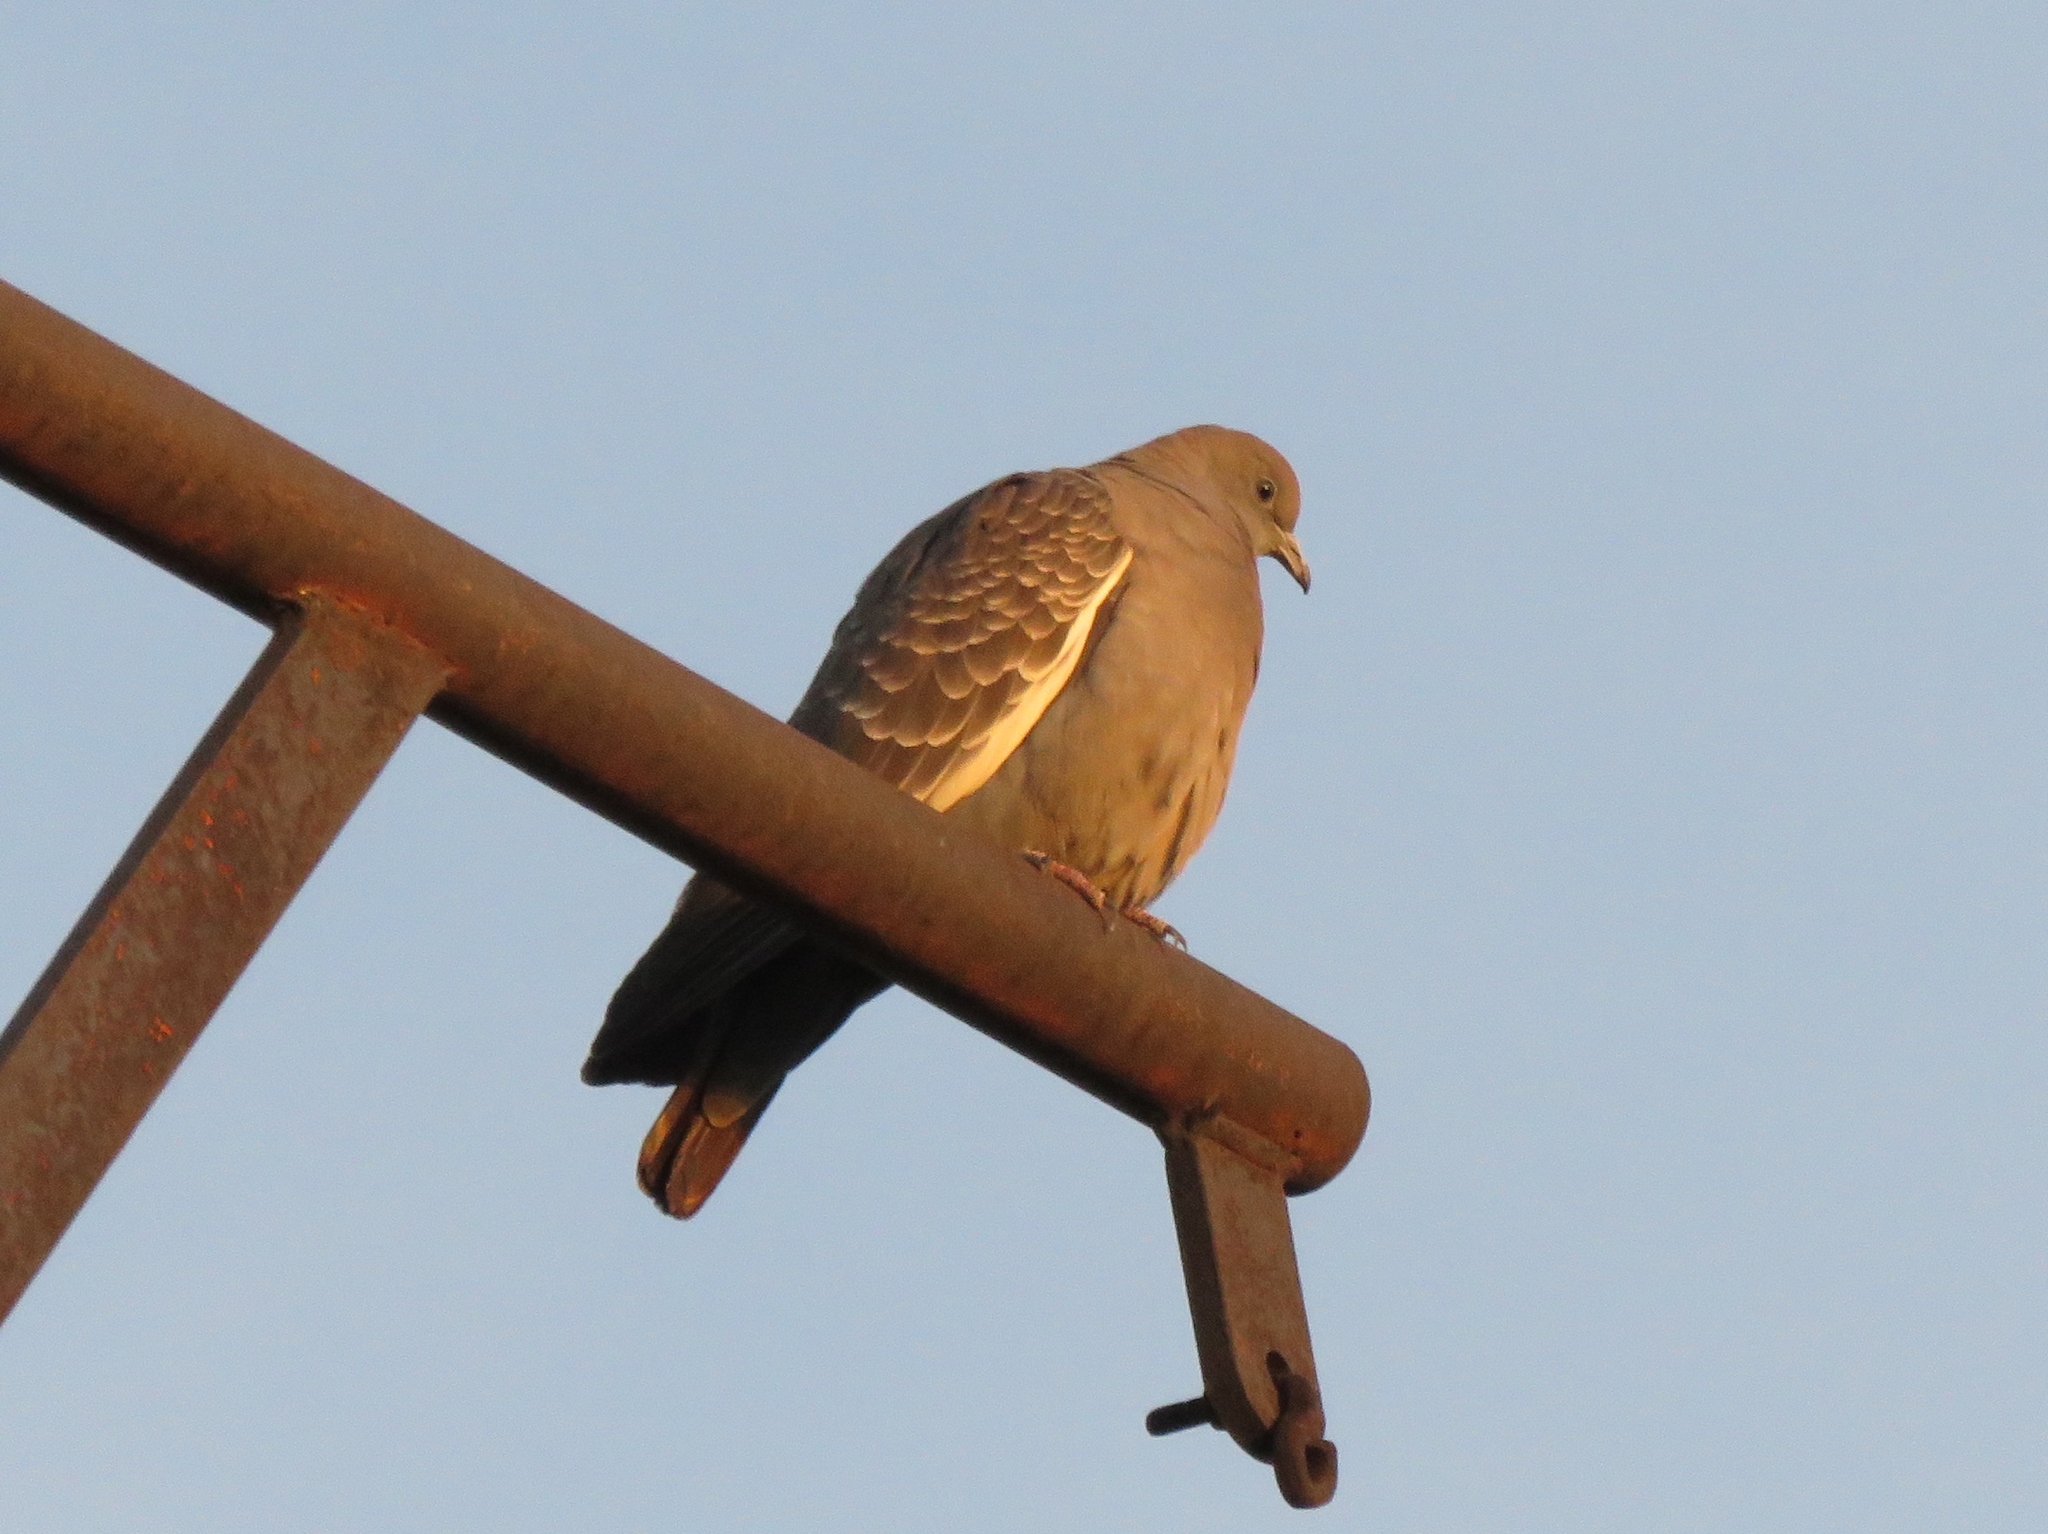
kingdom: Animalia
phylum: Chordata
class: Aves
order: Columbiformes
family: Columbidae
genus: Patagioenas
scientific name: Patagioenas maculosa
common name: Spot-winged pigeon
